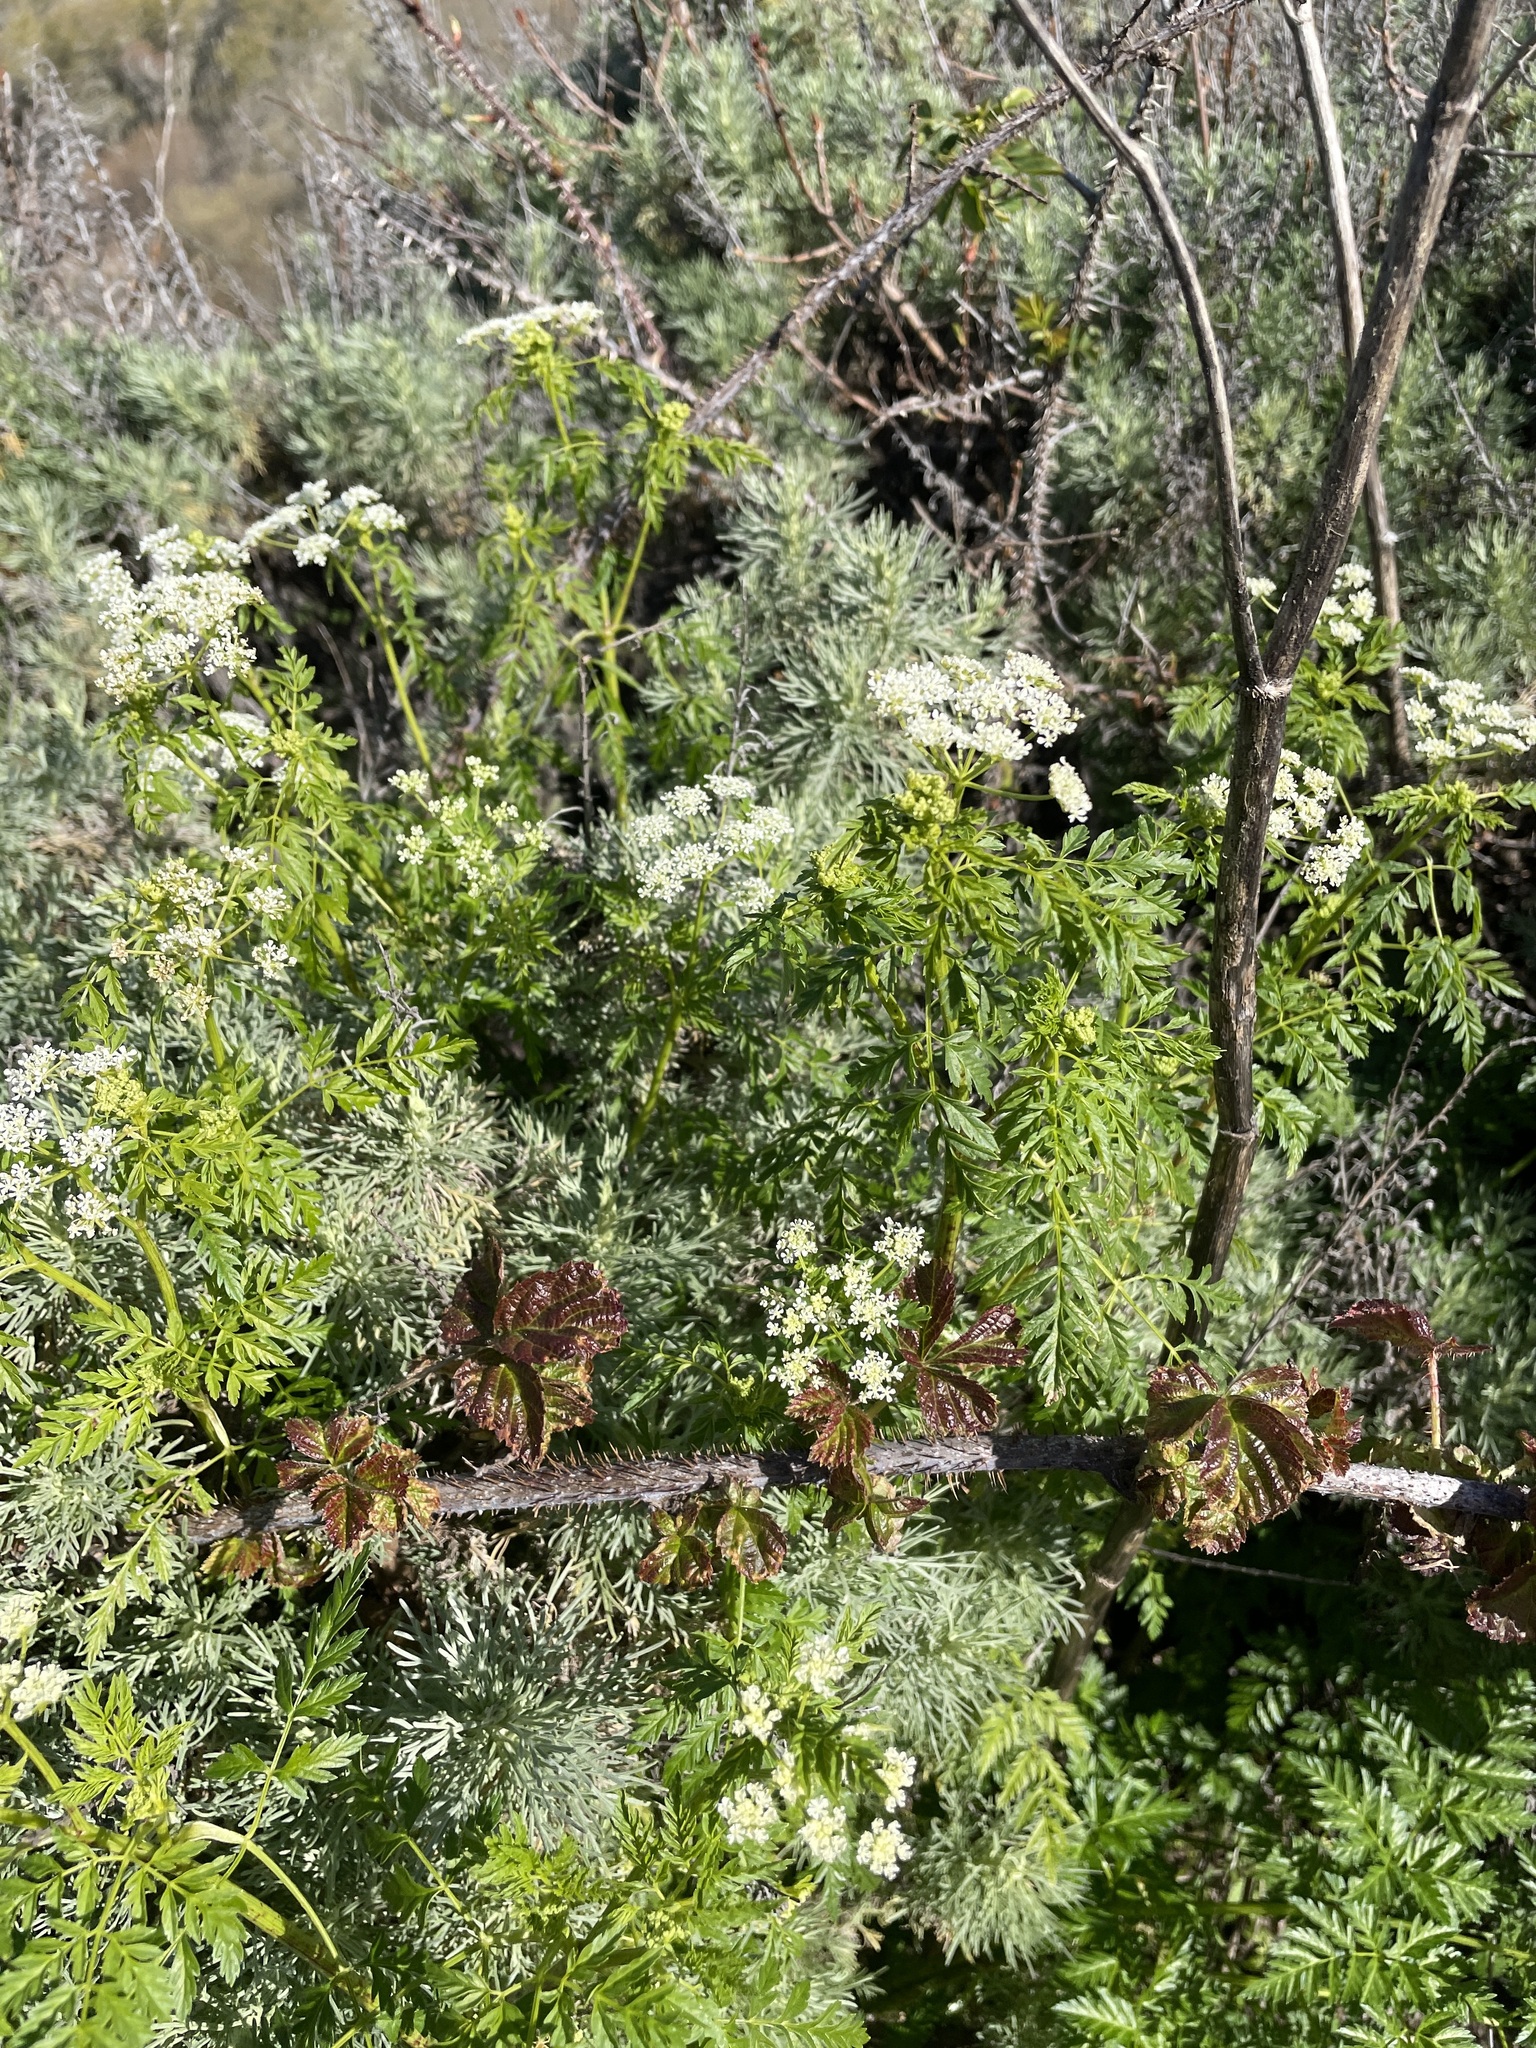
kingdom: Plantae
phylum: Tracheophyta
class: Magnoliopsida
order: Apiales
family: Apiaceae
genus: Conium
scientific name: Conium maculatum
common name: Hemlock
